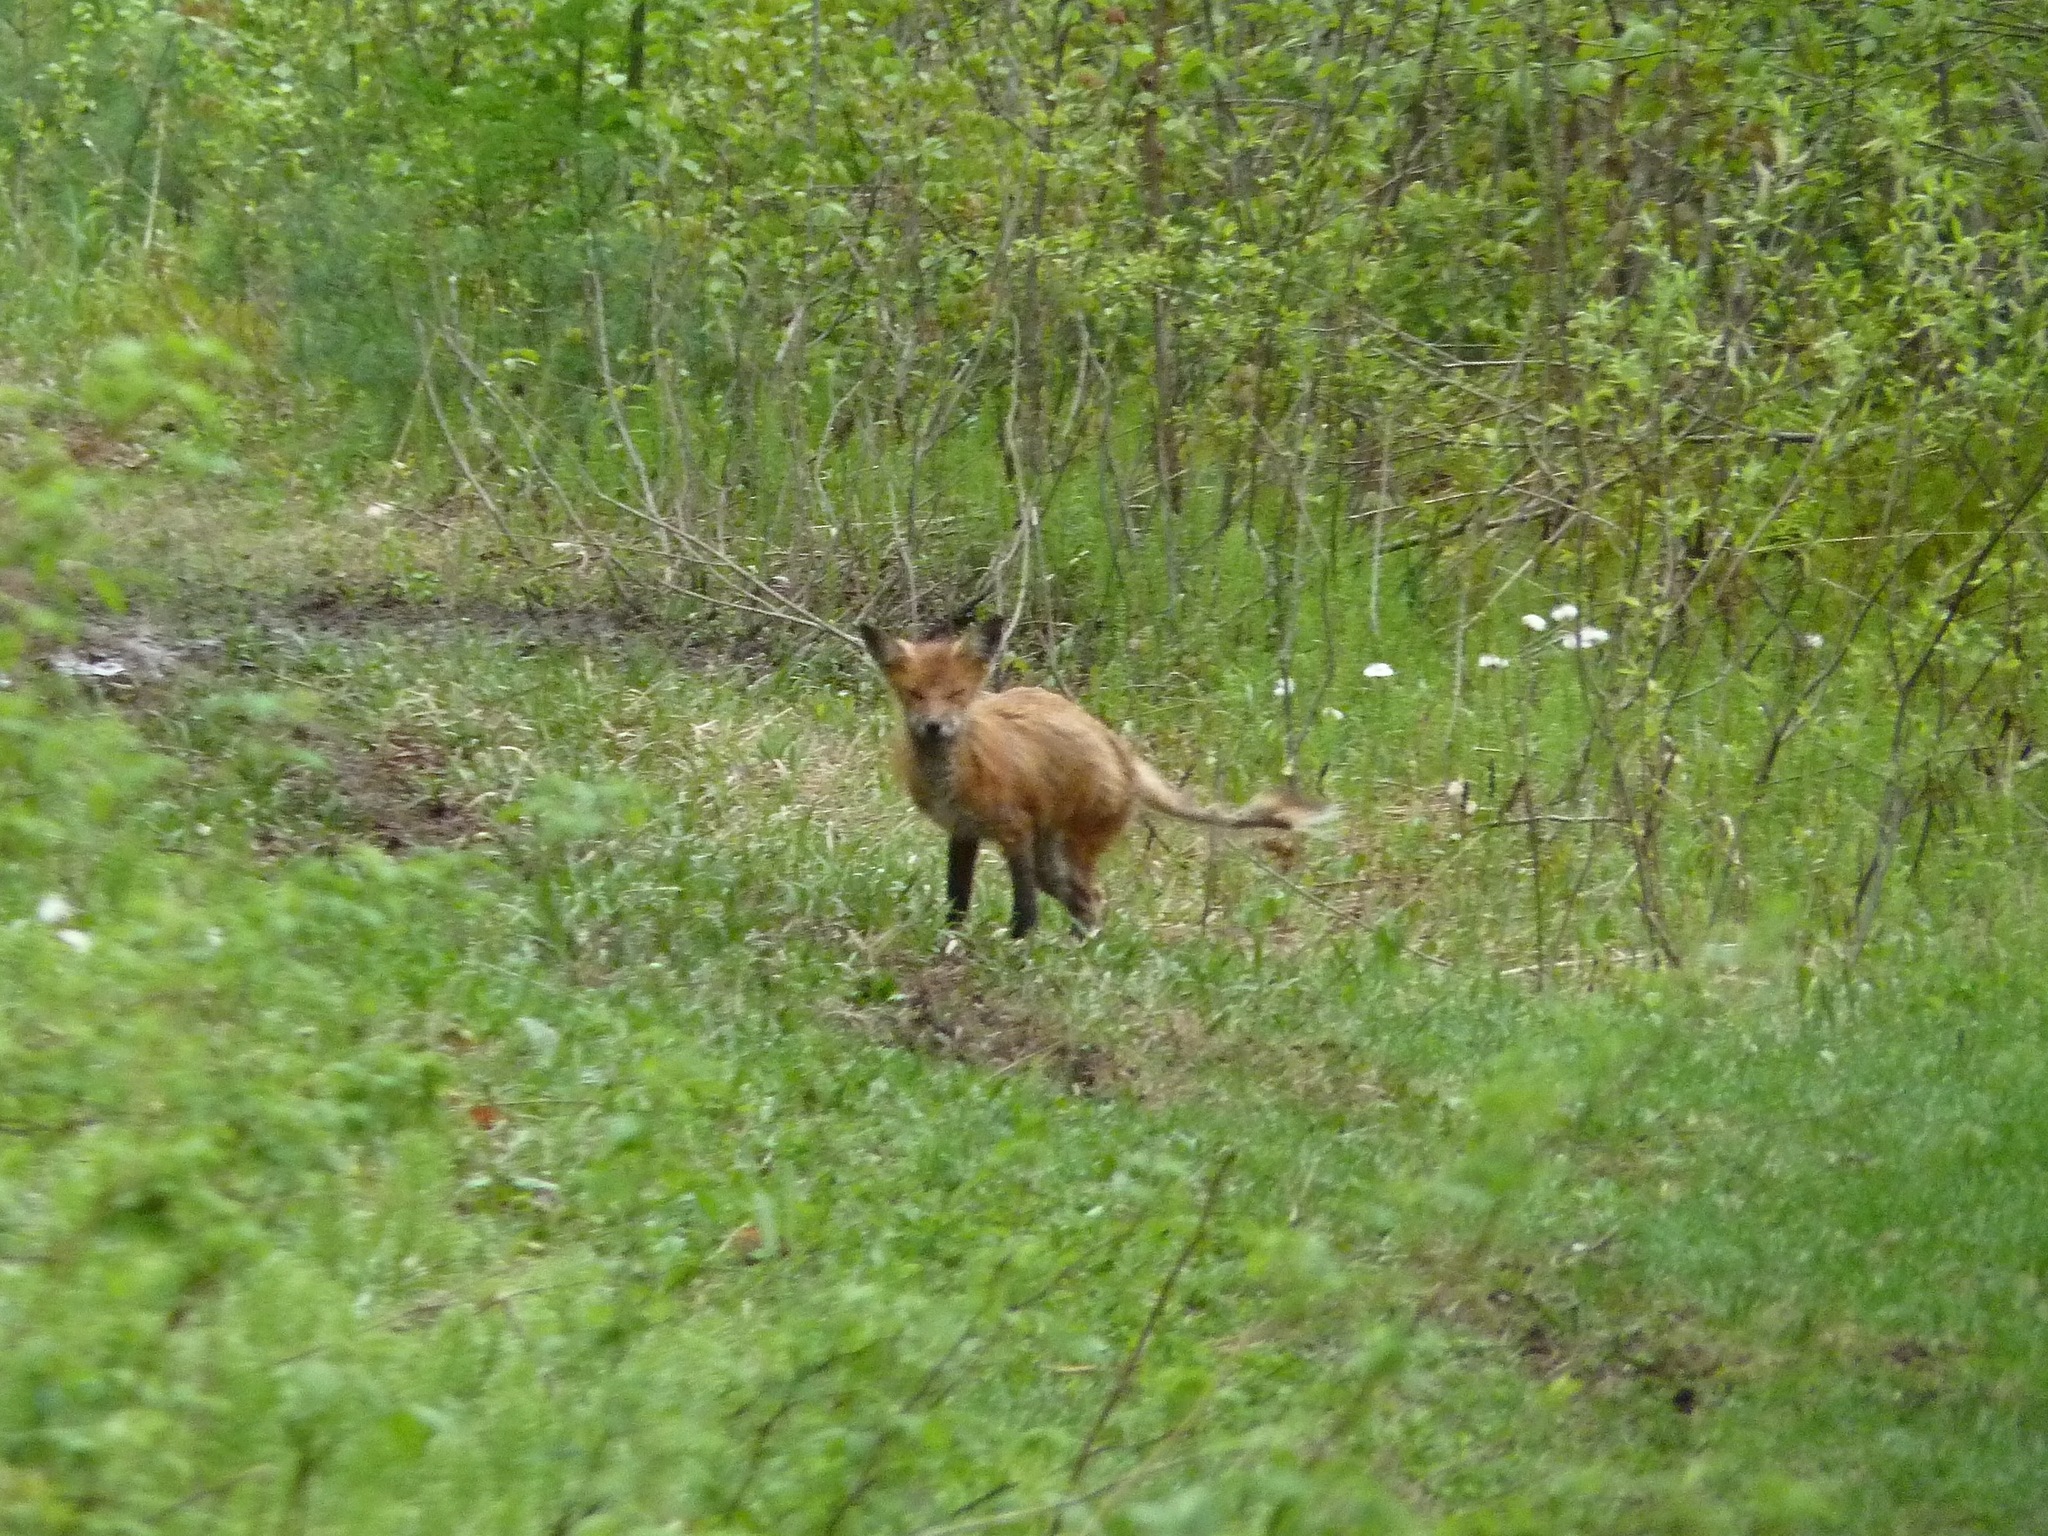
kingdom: Animalia
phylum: Chordata
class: Mammalia
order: Carnivora
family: Canidae
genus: Vulpes
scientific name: Vulpes vulpes
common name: Red fox
